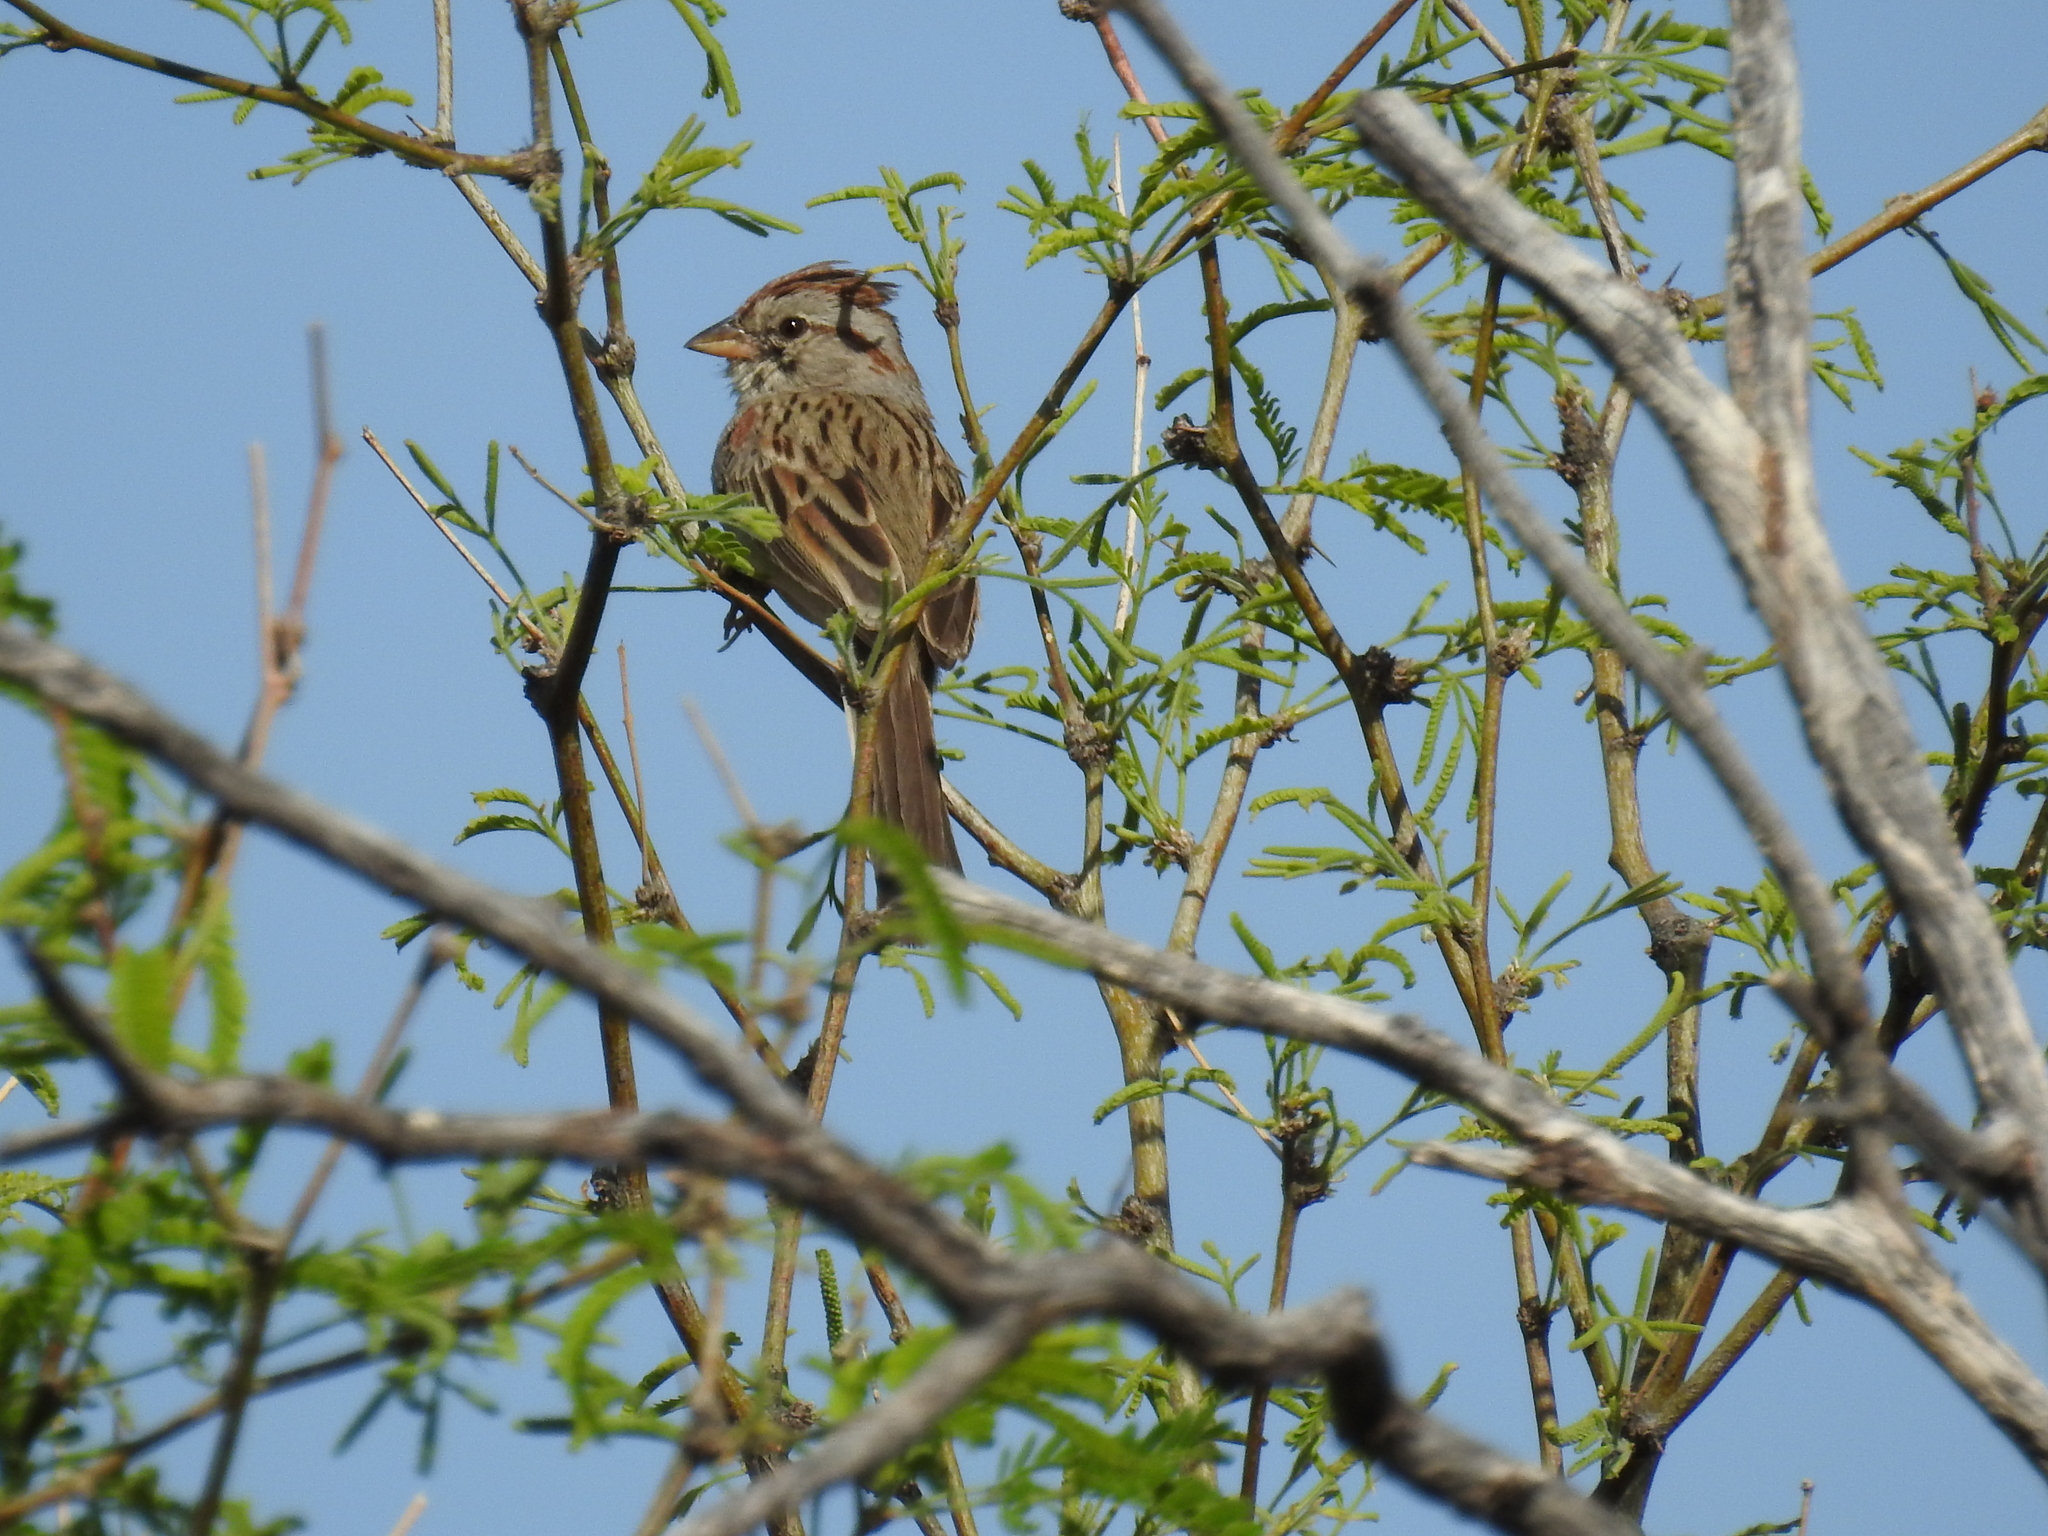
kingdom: Animalia
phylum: Chordata
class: Aves
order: Passeriformes
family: Passerellidae
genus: Peucaea
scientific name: Peucaea carpalis
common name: Rufous-winged sparrow
